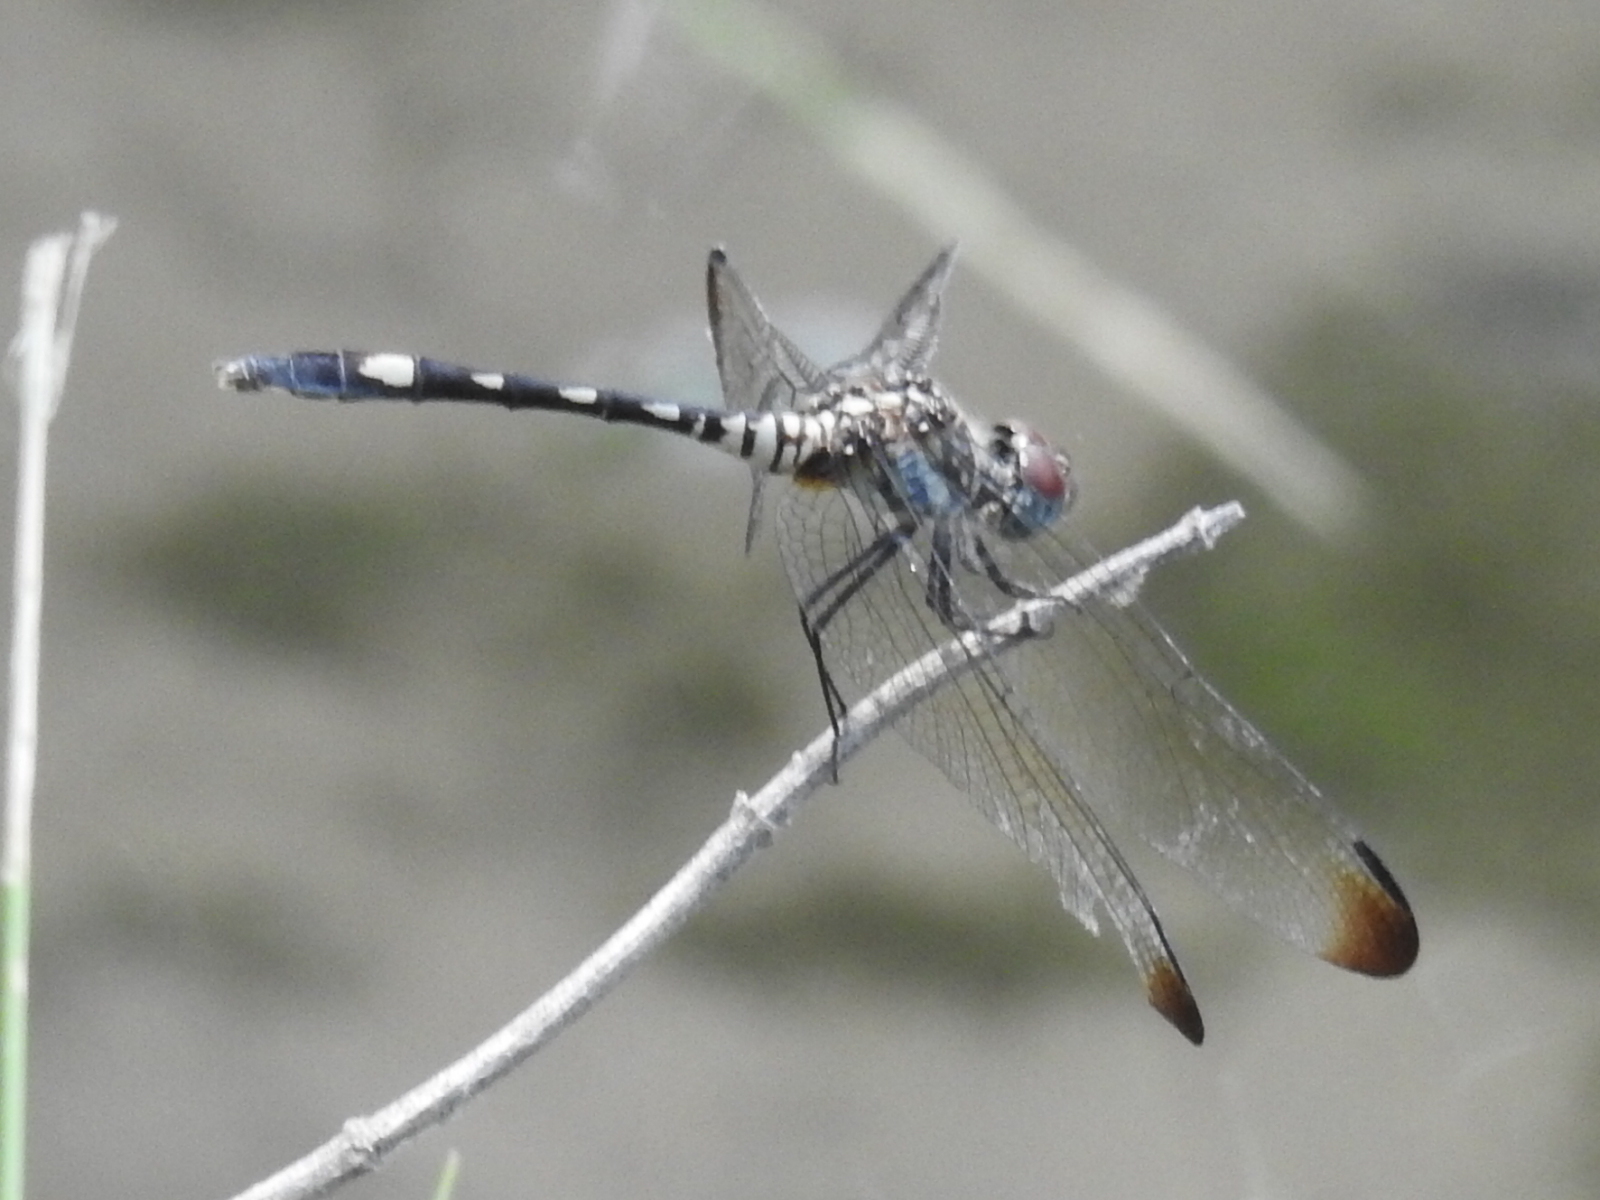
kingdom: Animalia
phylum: Arthropoda
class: Insecta
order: Odonata
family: Libellulidae
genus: Dythemis
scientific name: Dythemis velox
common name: Swift setwing
